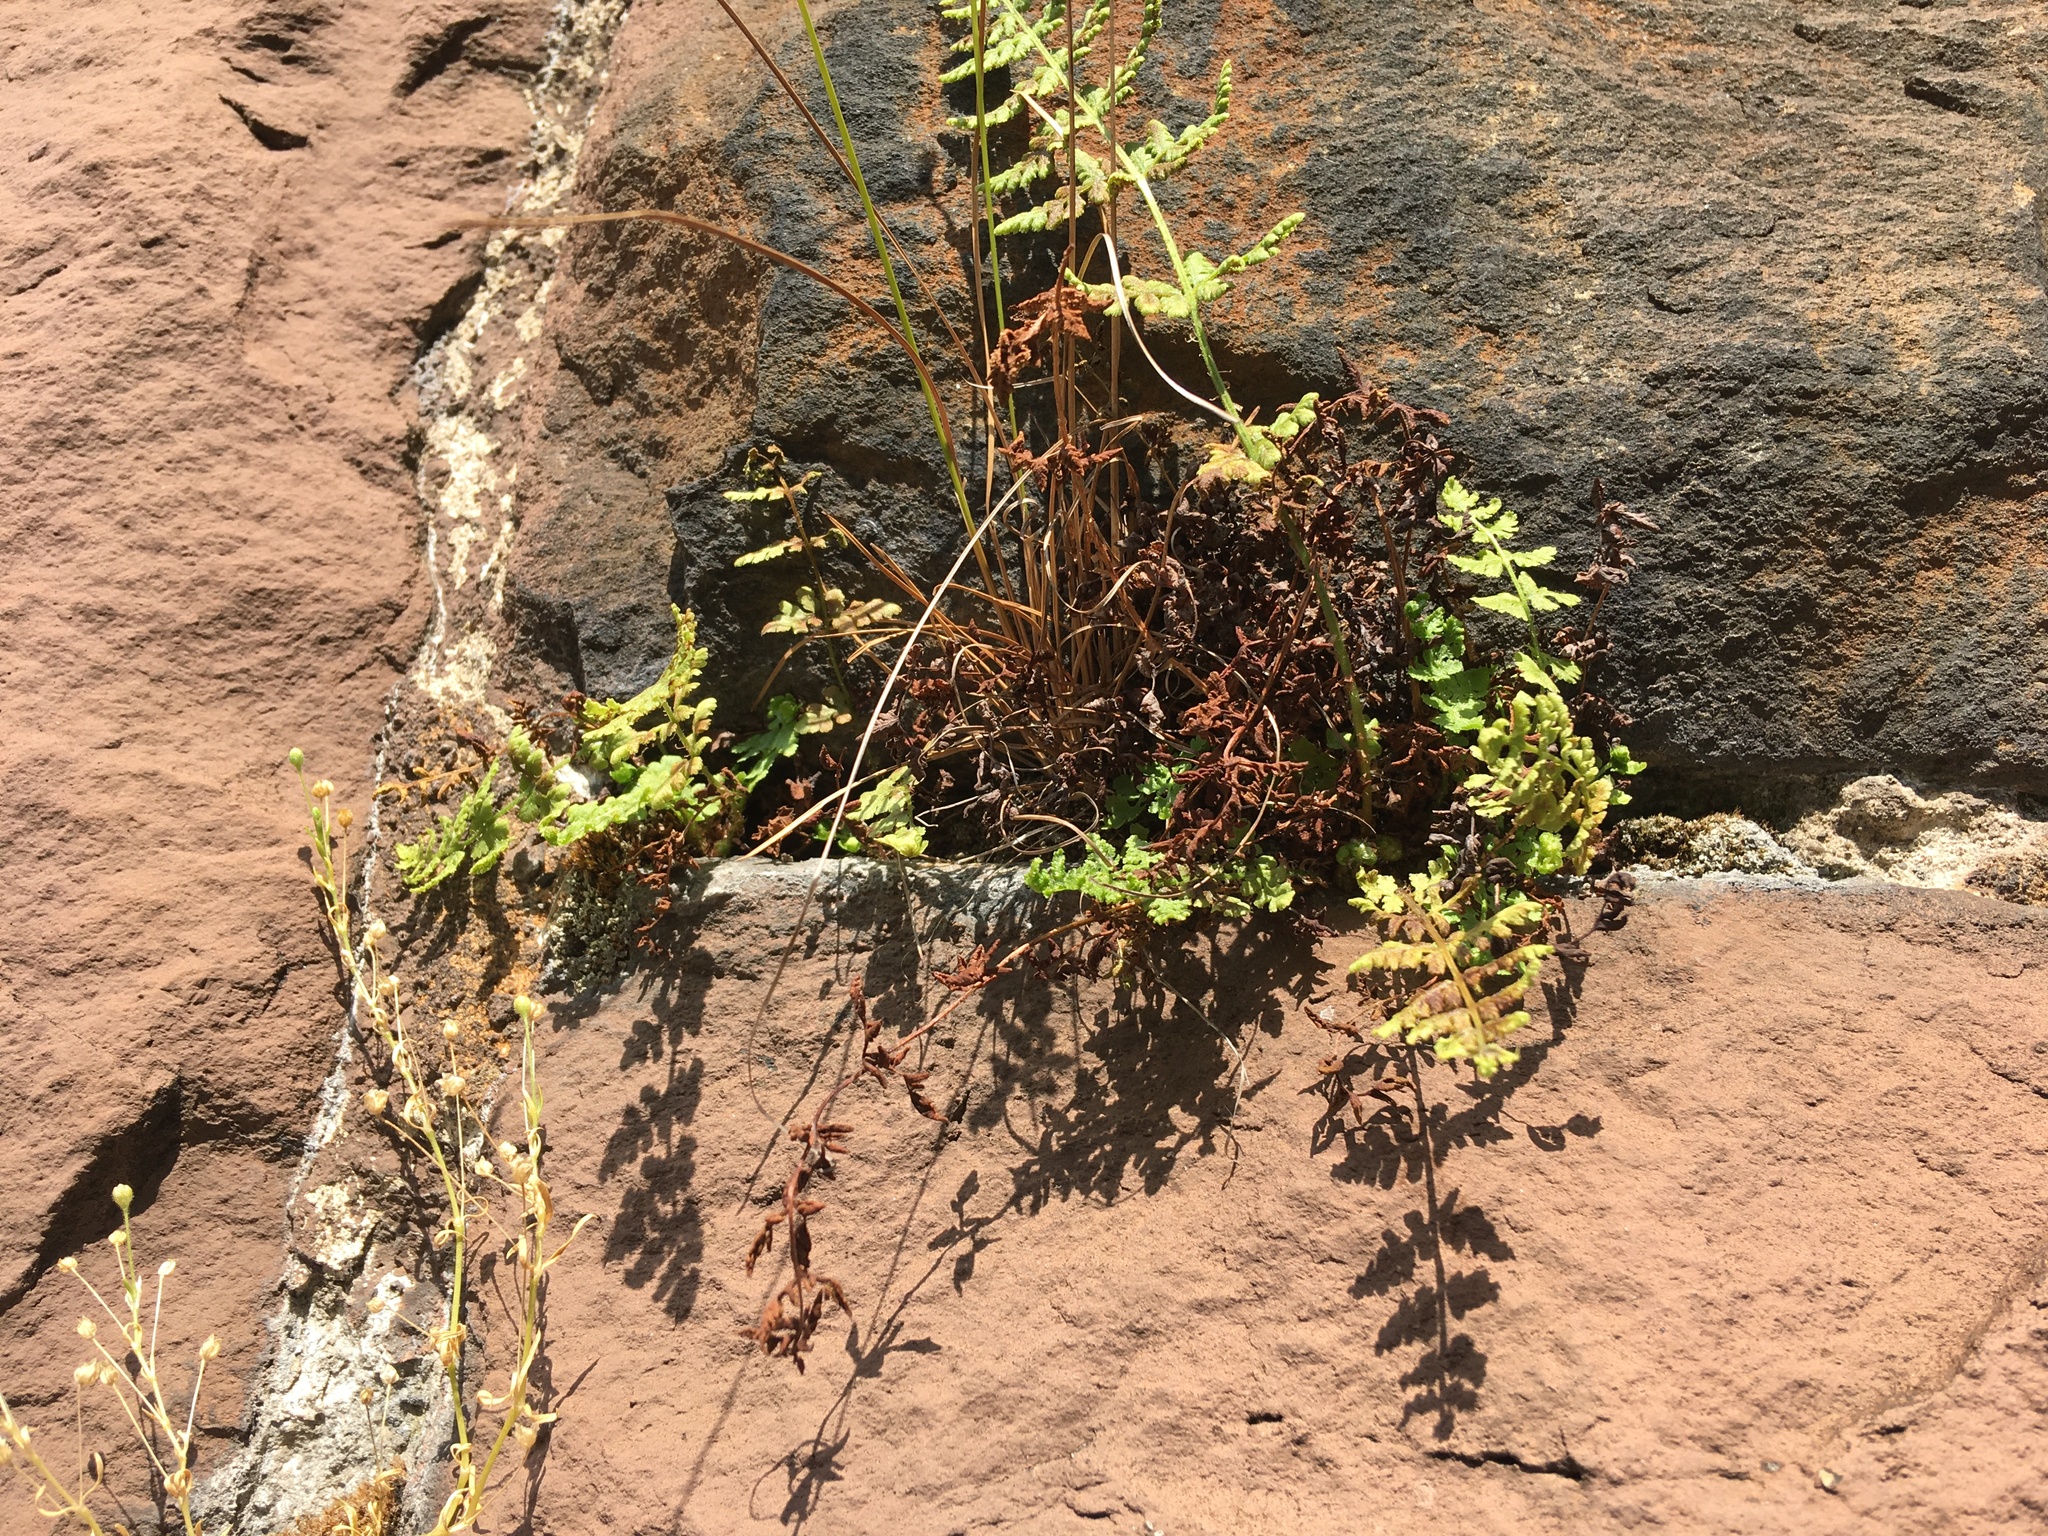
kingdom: Plantae
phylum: Tracheophyta
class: Polypodiopsida
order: Polypodiales
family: Woodsiaceae
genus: Physematium
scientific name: Physematium obtusum
